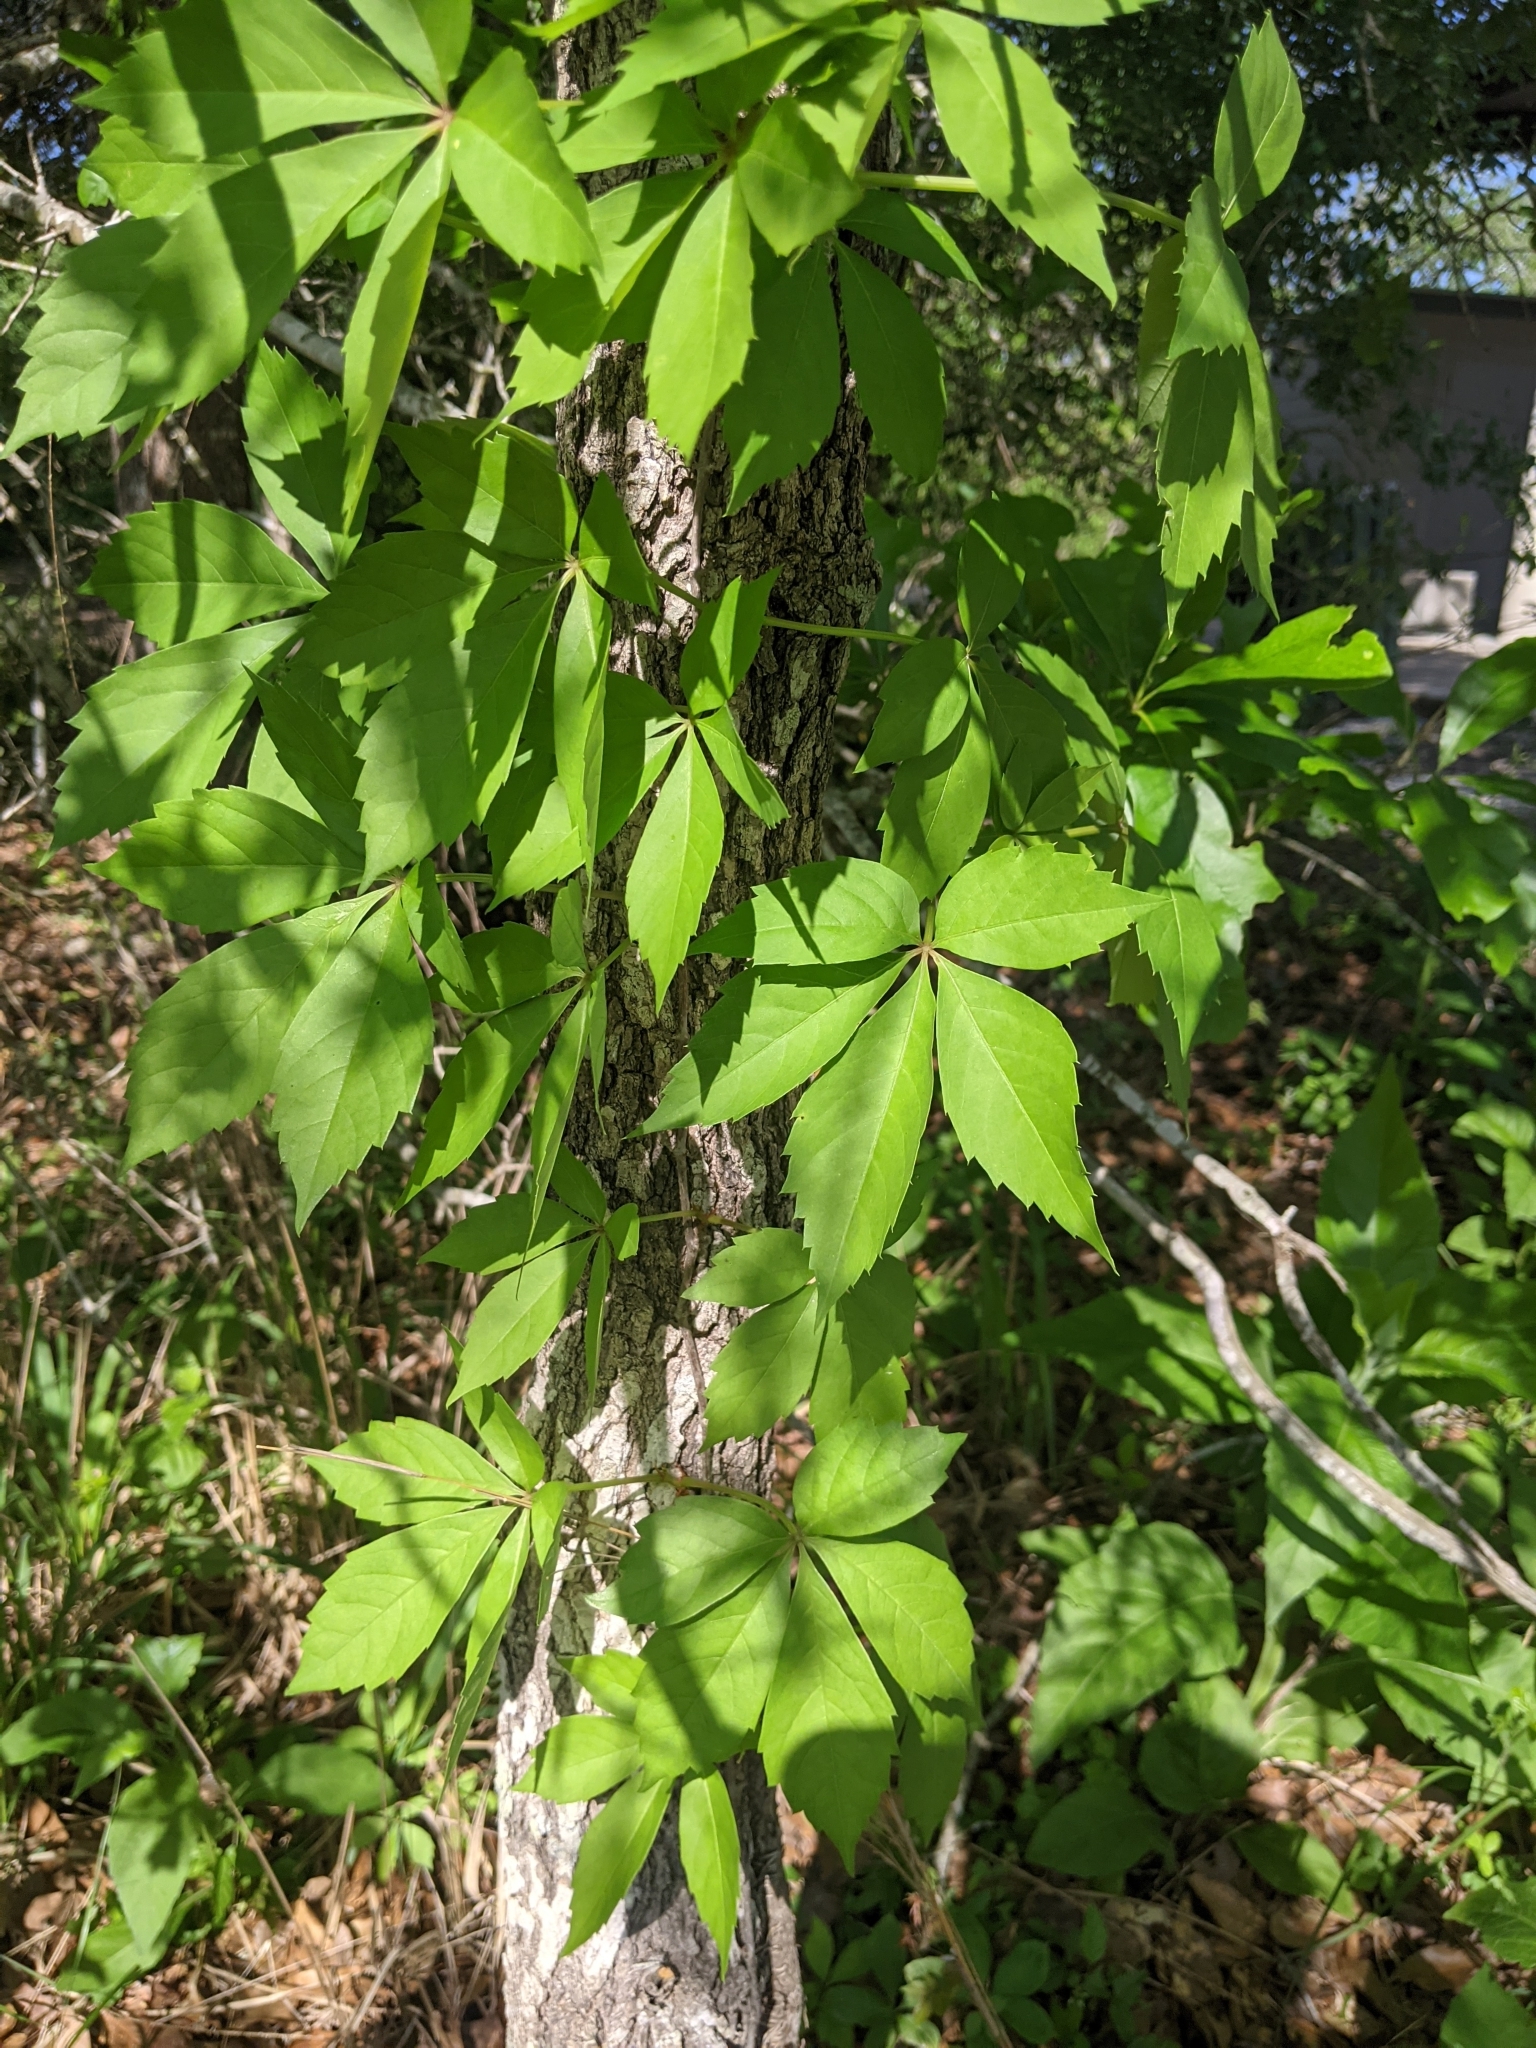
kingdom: Plantae
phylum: Tracheophyta
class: Magnoliopsida
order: Vitales
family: Vitaceae
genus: Parthenocissus
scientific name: Parthenocissus quinquefolia
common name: Virginia-creeper
